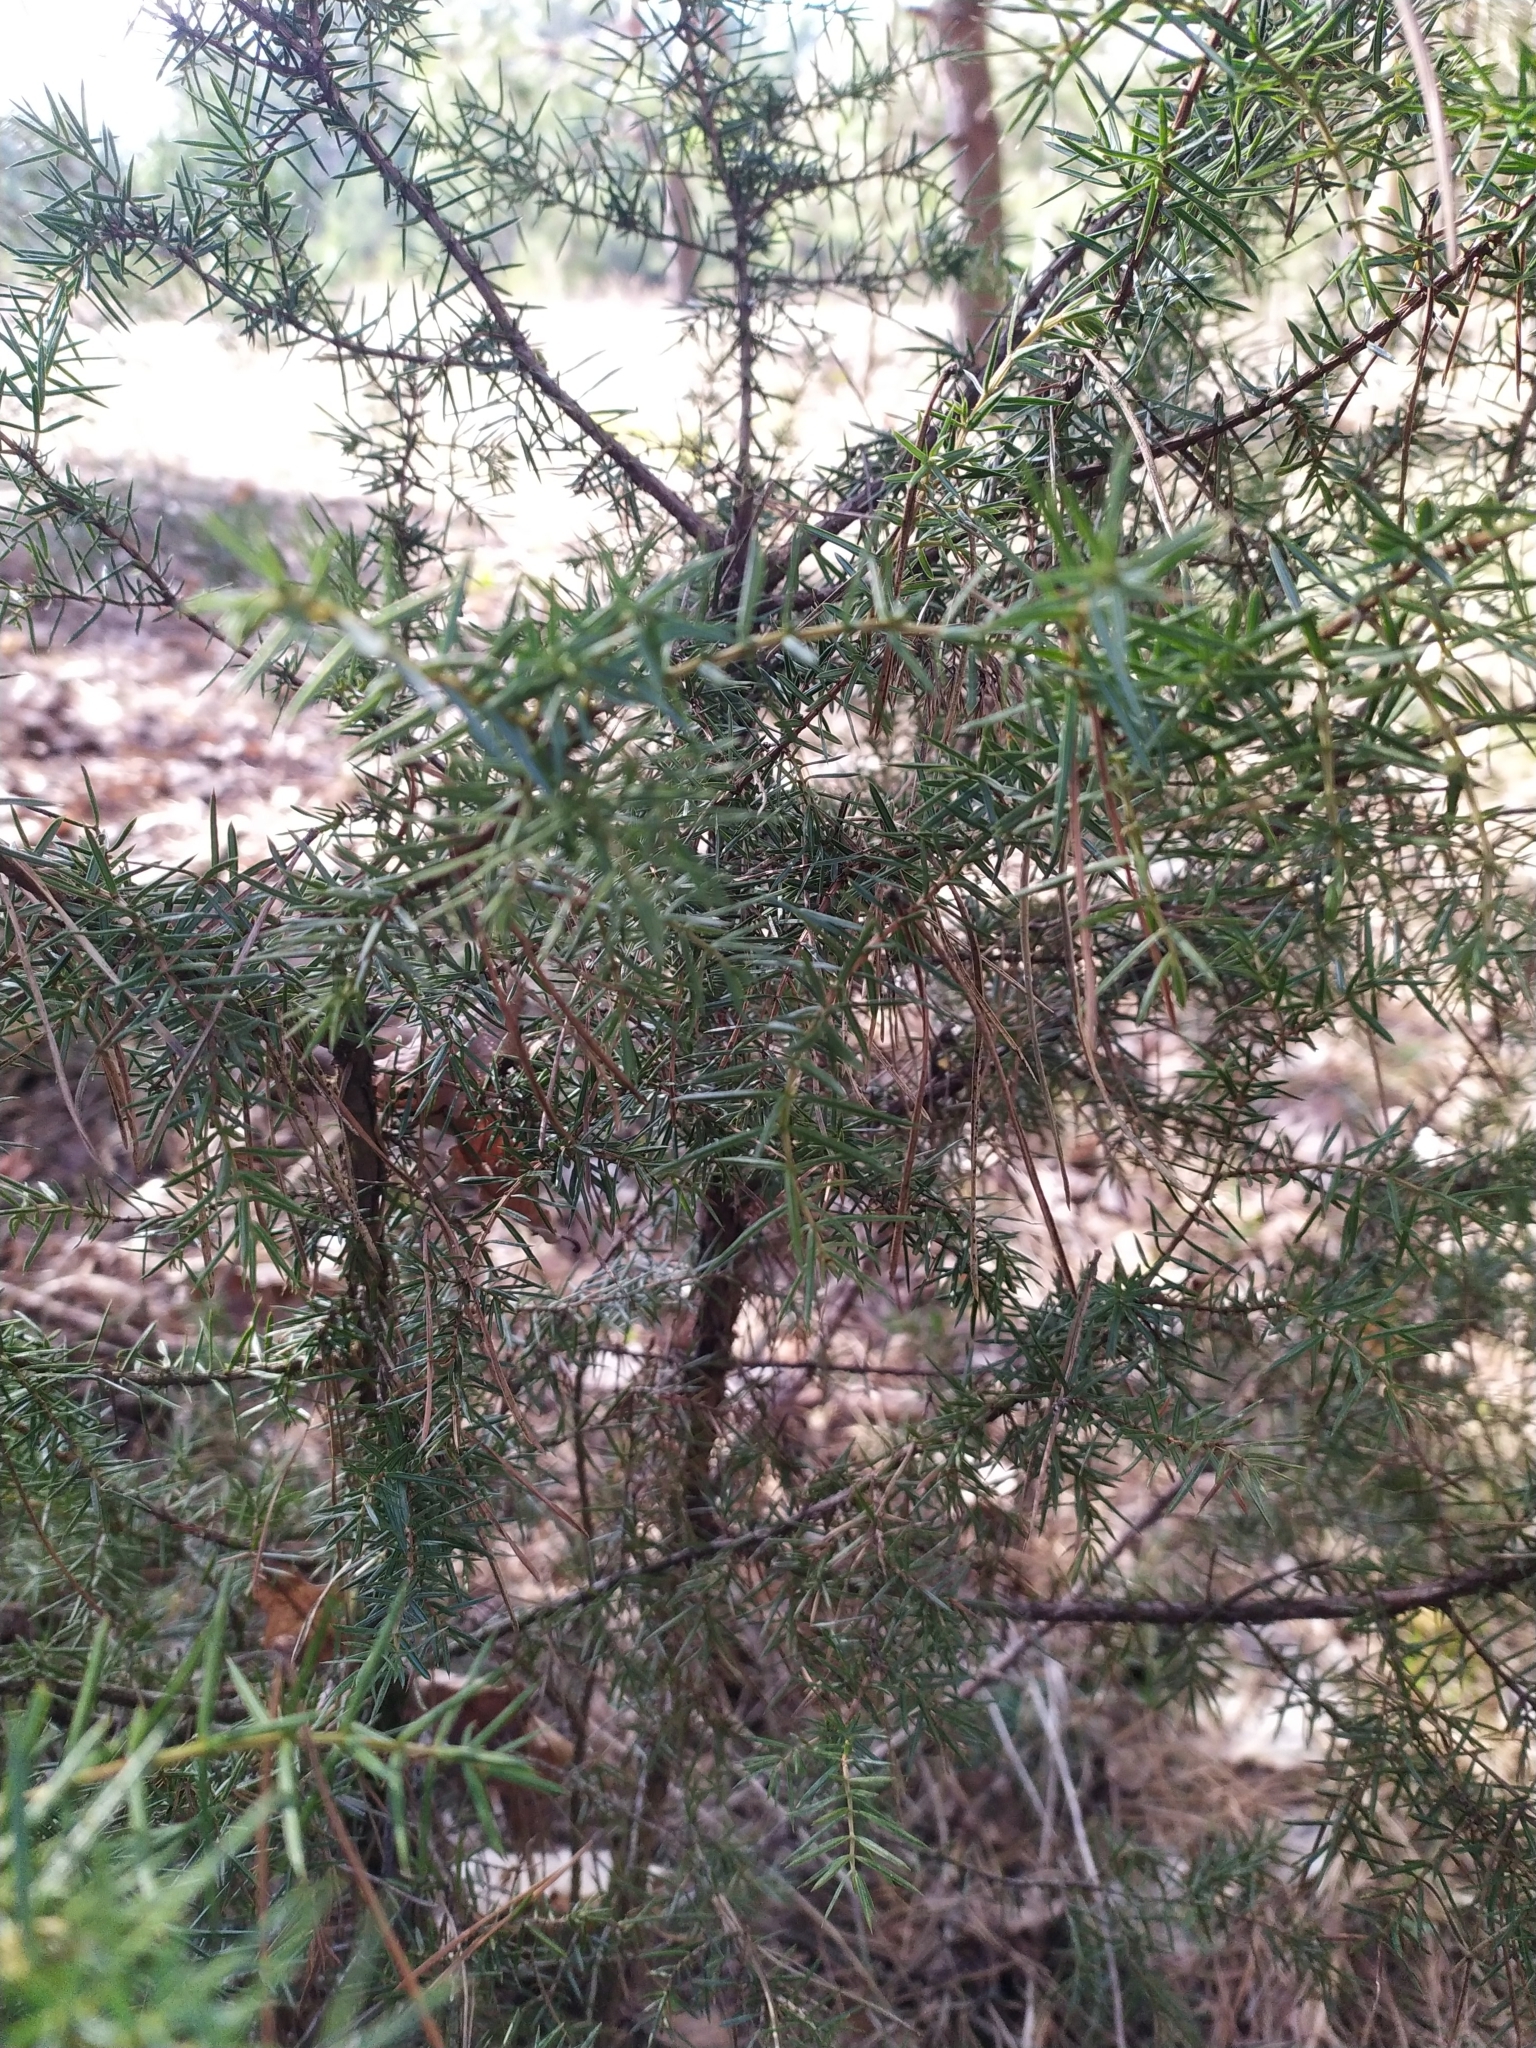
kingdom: Plantae
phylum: Tracheophyta
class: Pinopsida
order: Pinales
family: Cupressaceae
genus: Juniperus
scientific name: Juniperus communis
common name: Common juniper
